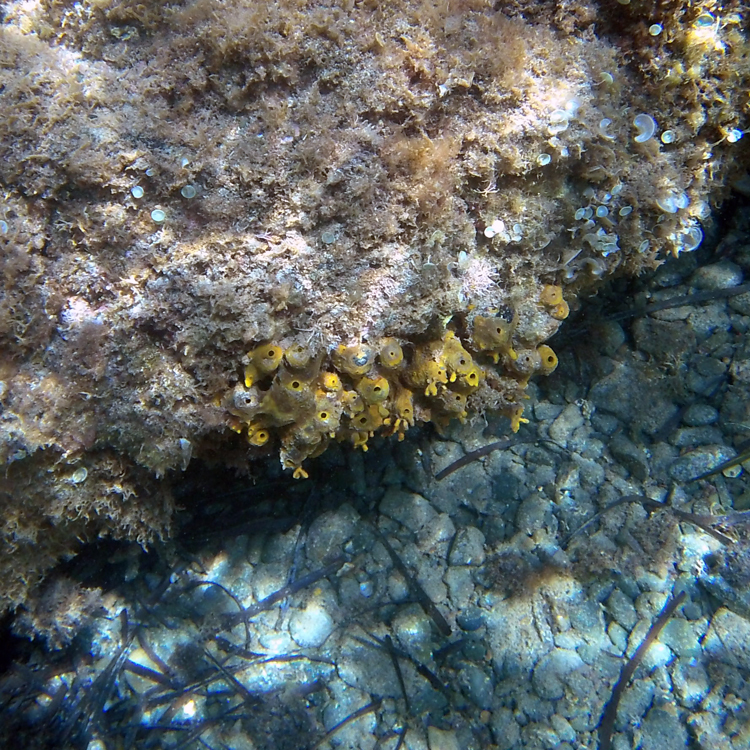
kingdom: Animalia
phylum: Porifera
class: Demospongiae
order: Verongiida
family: Aplysinidae
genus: Aplysina
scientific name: Aplysina aerophoba
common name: Aureate sponge
